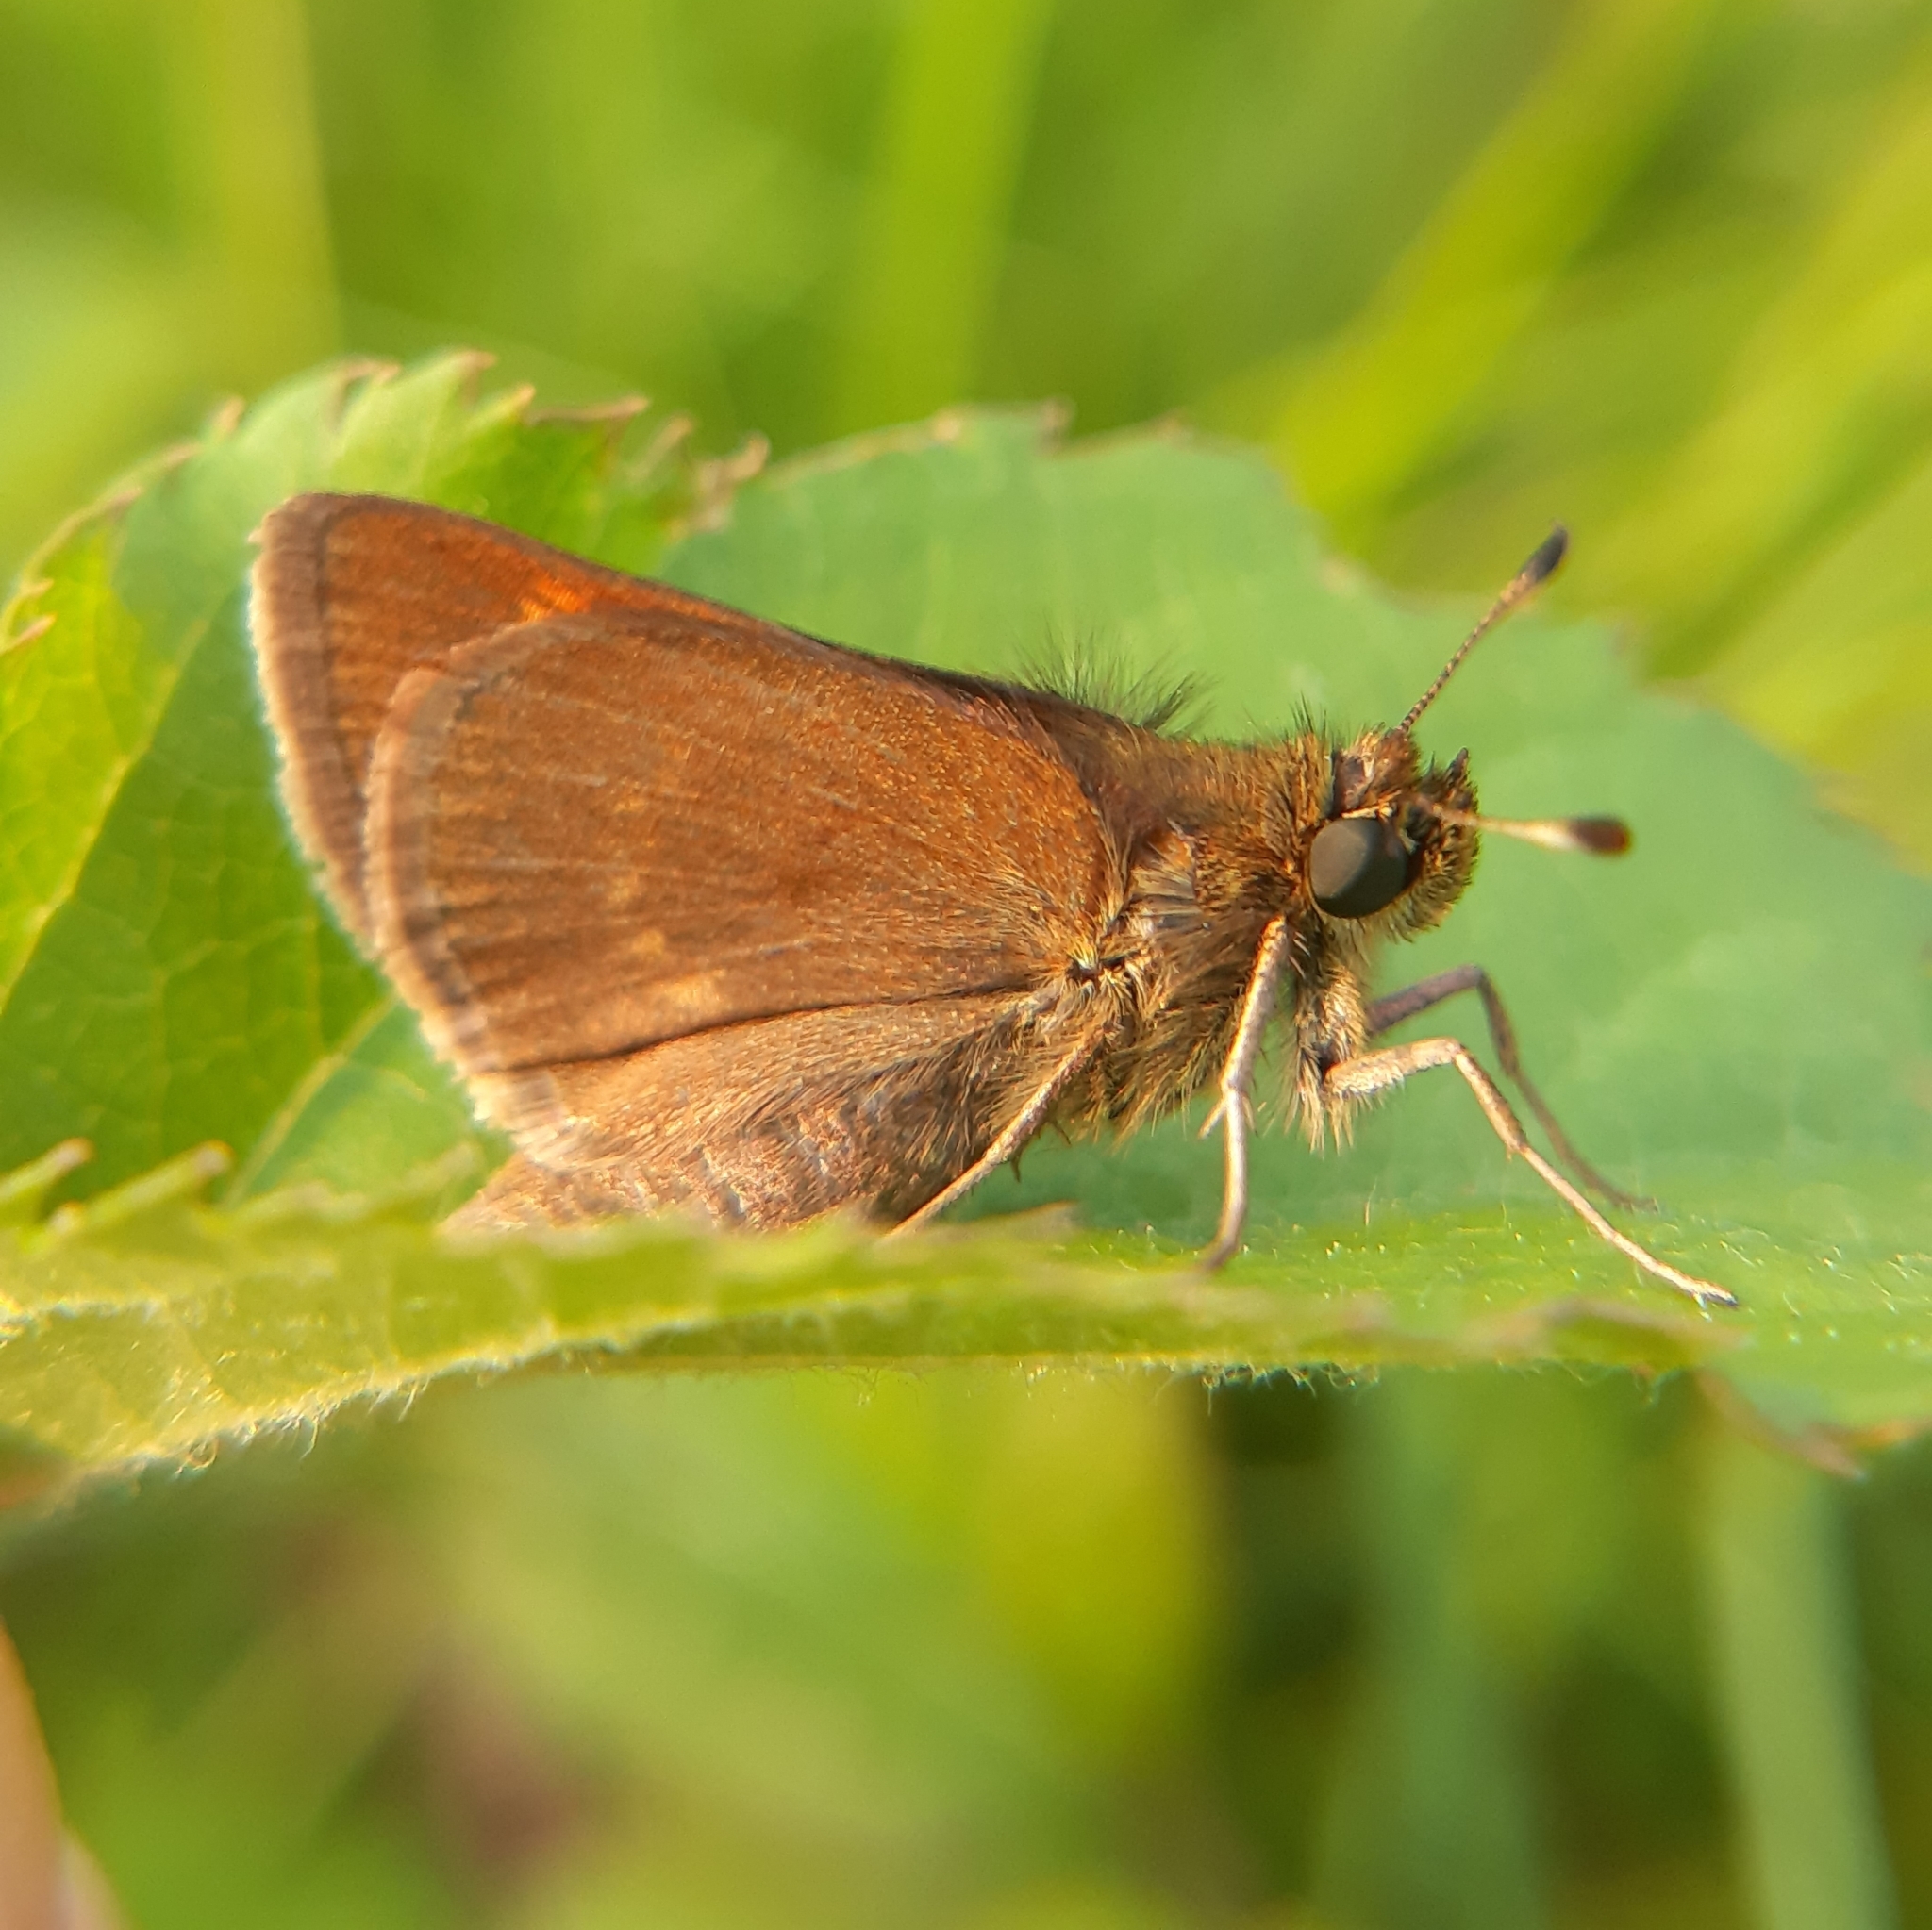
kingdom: Animalia
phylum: Arthropoda
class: Insecta
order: Lepidoptera
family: Hesperiidae
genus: Polites
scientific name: Polites themistocles
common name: Tawny-edged skipper
